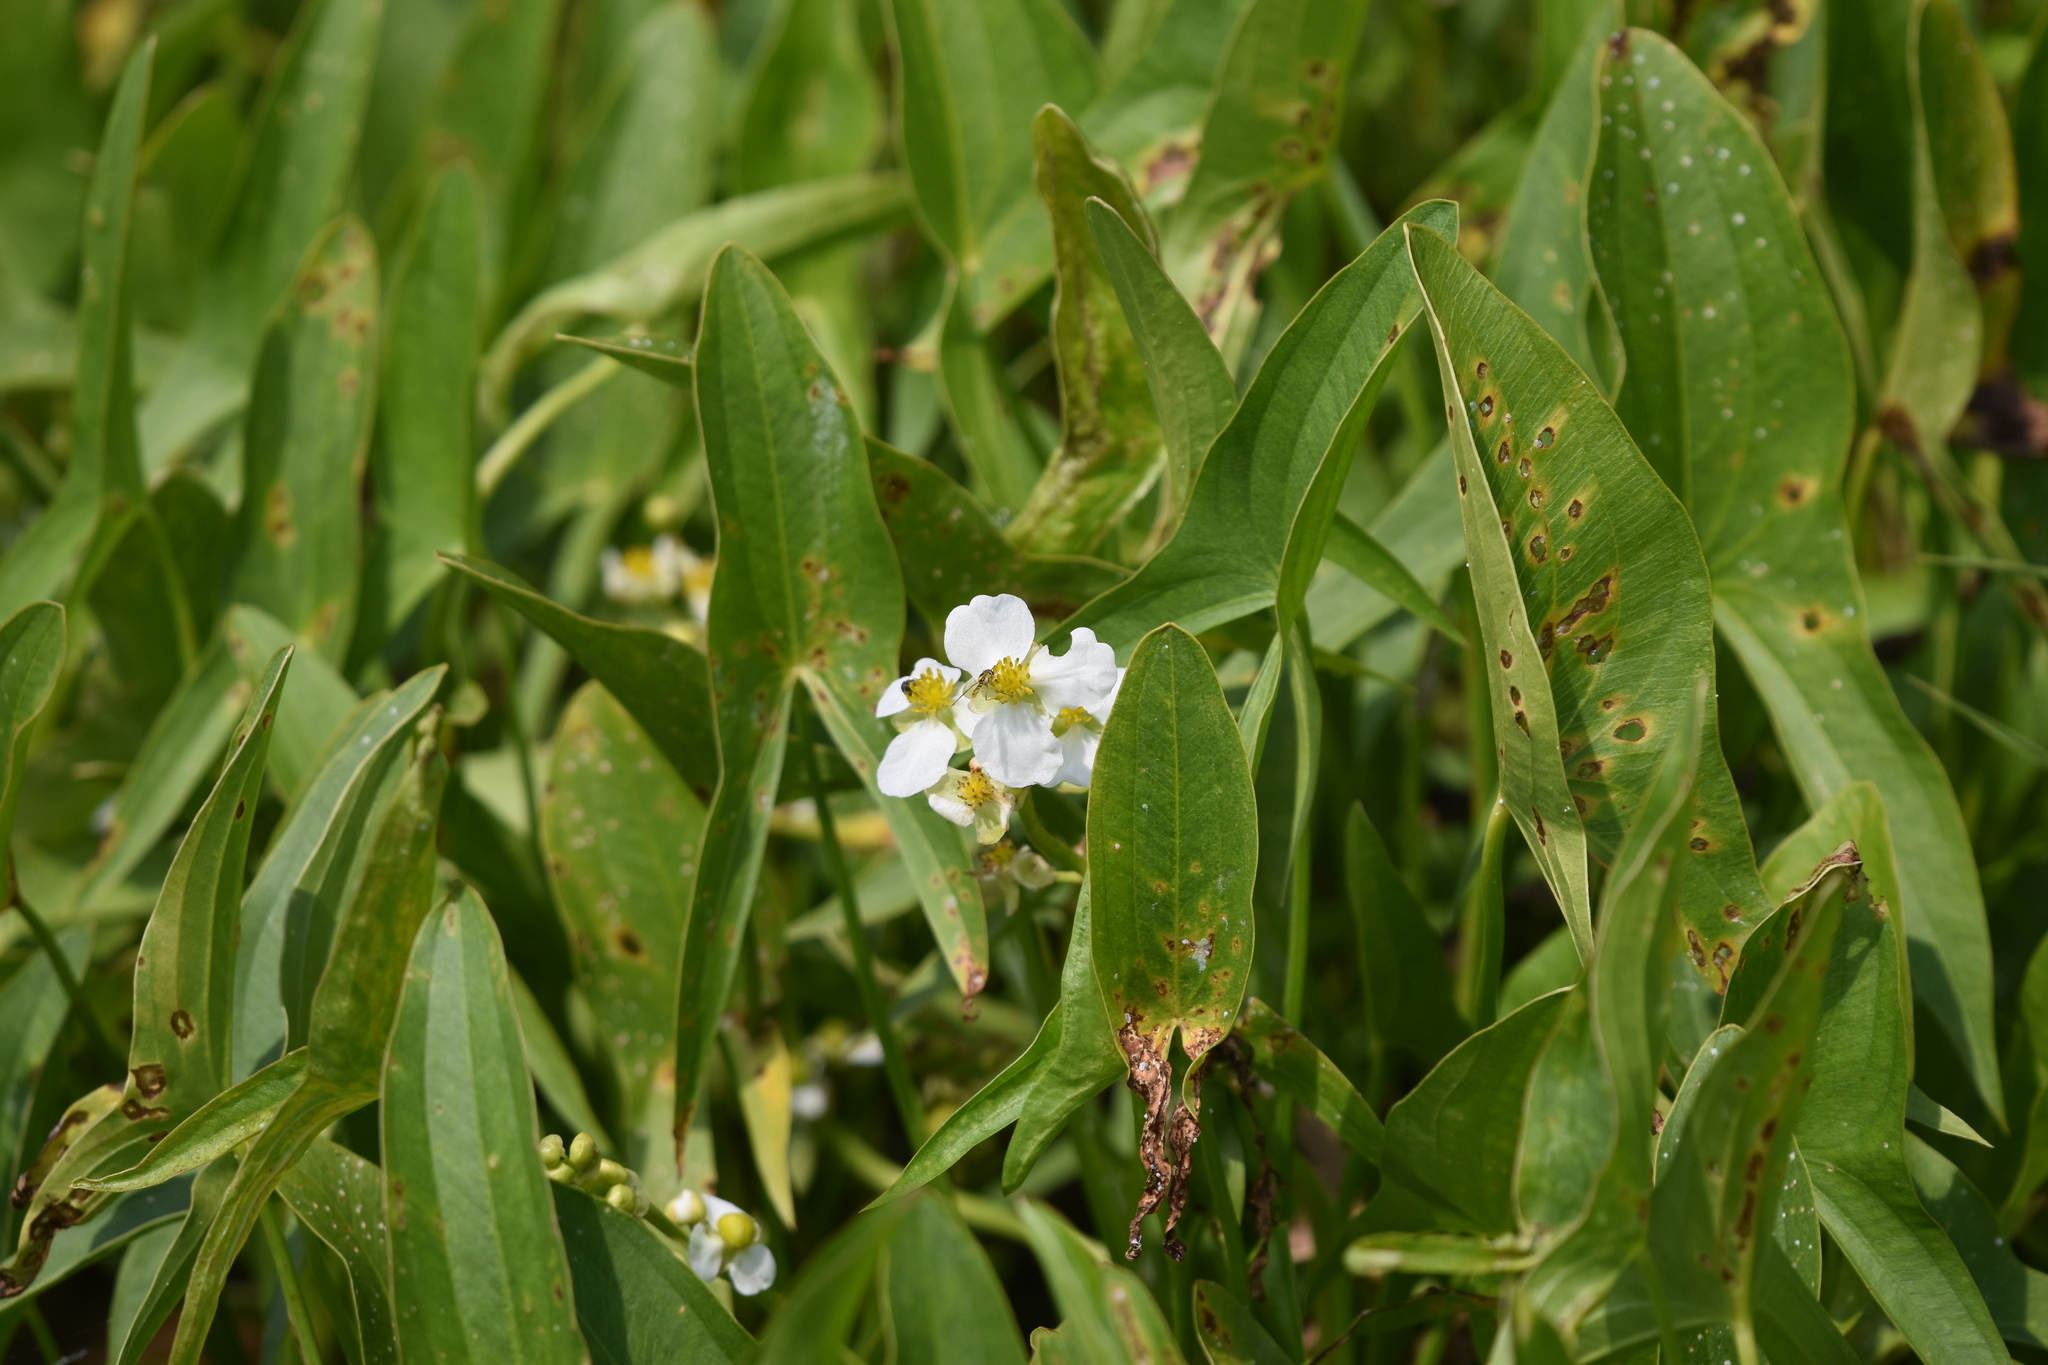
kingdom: Plantae
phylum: Tracheophyta
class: Liliopsida
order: Alismatales
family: Alismataceae
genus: Sagittaria
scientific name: Sagittaria latifolia
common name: Duck-potato
